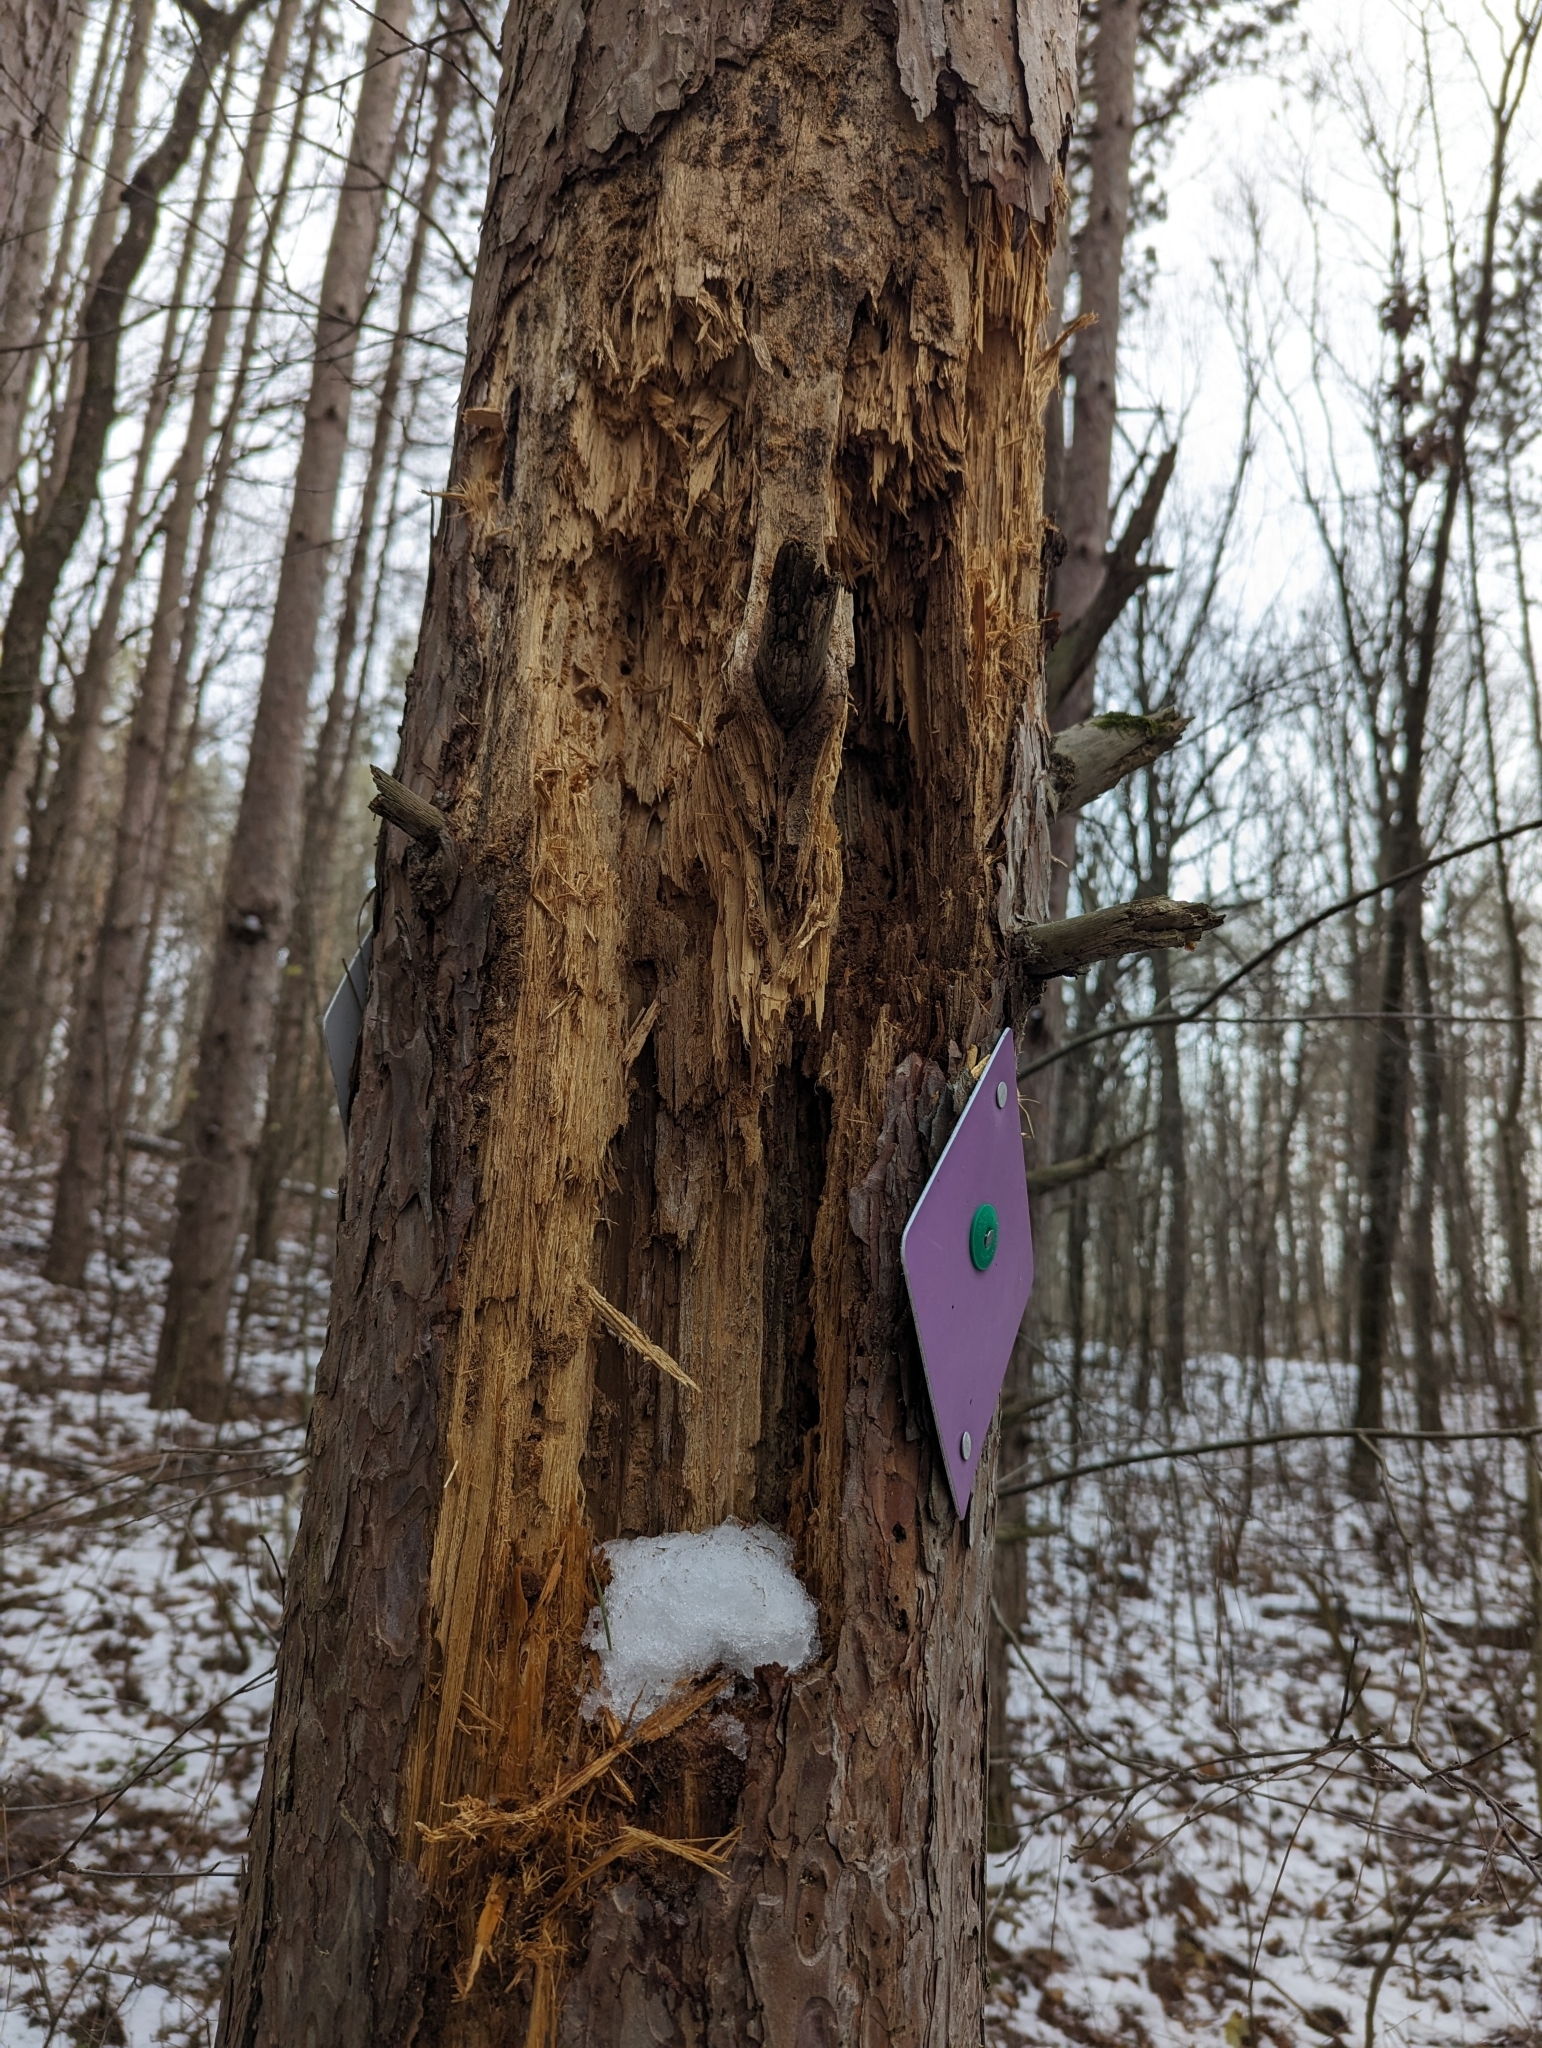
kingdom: Animalia
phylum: Chordata
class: Aves
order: Piciformes
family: Picidae
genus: Dryocopus
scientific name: Dryocopus pileatus
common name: Pileated woodpecker
